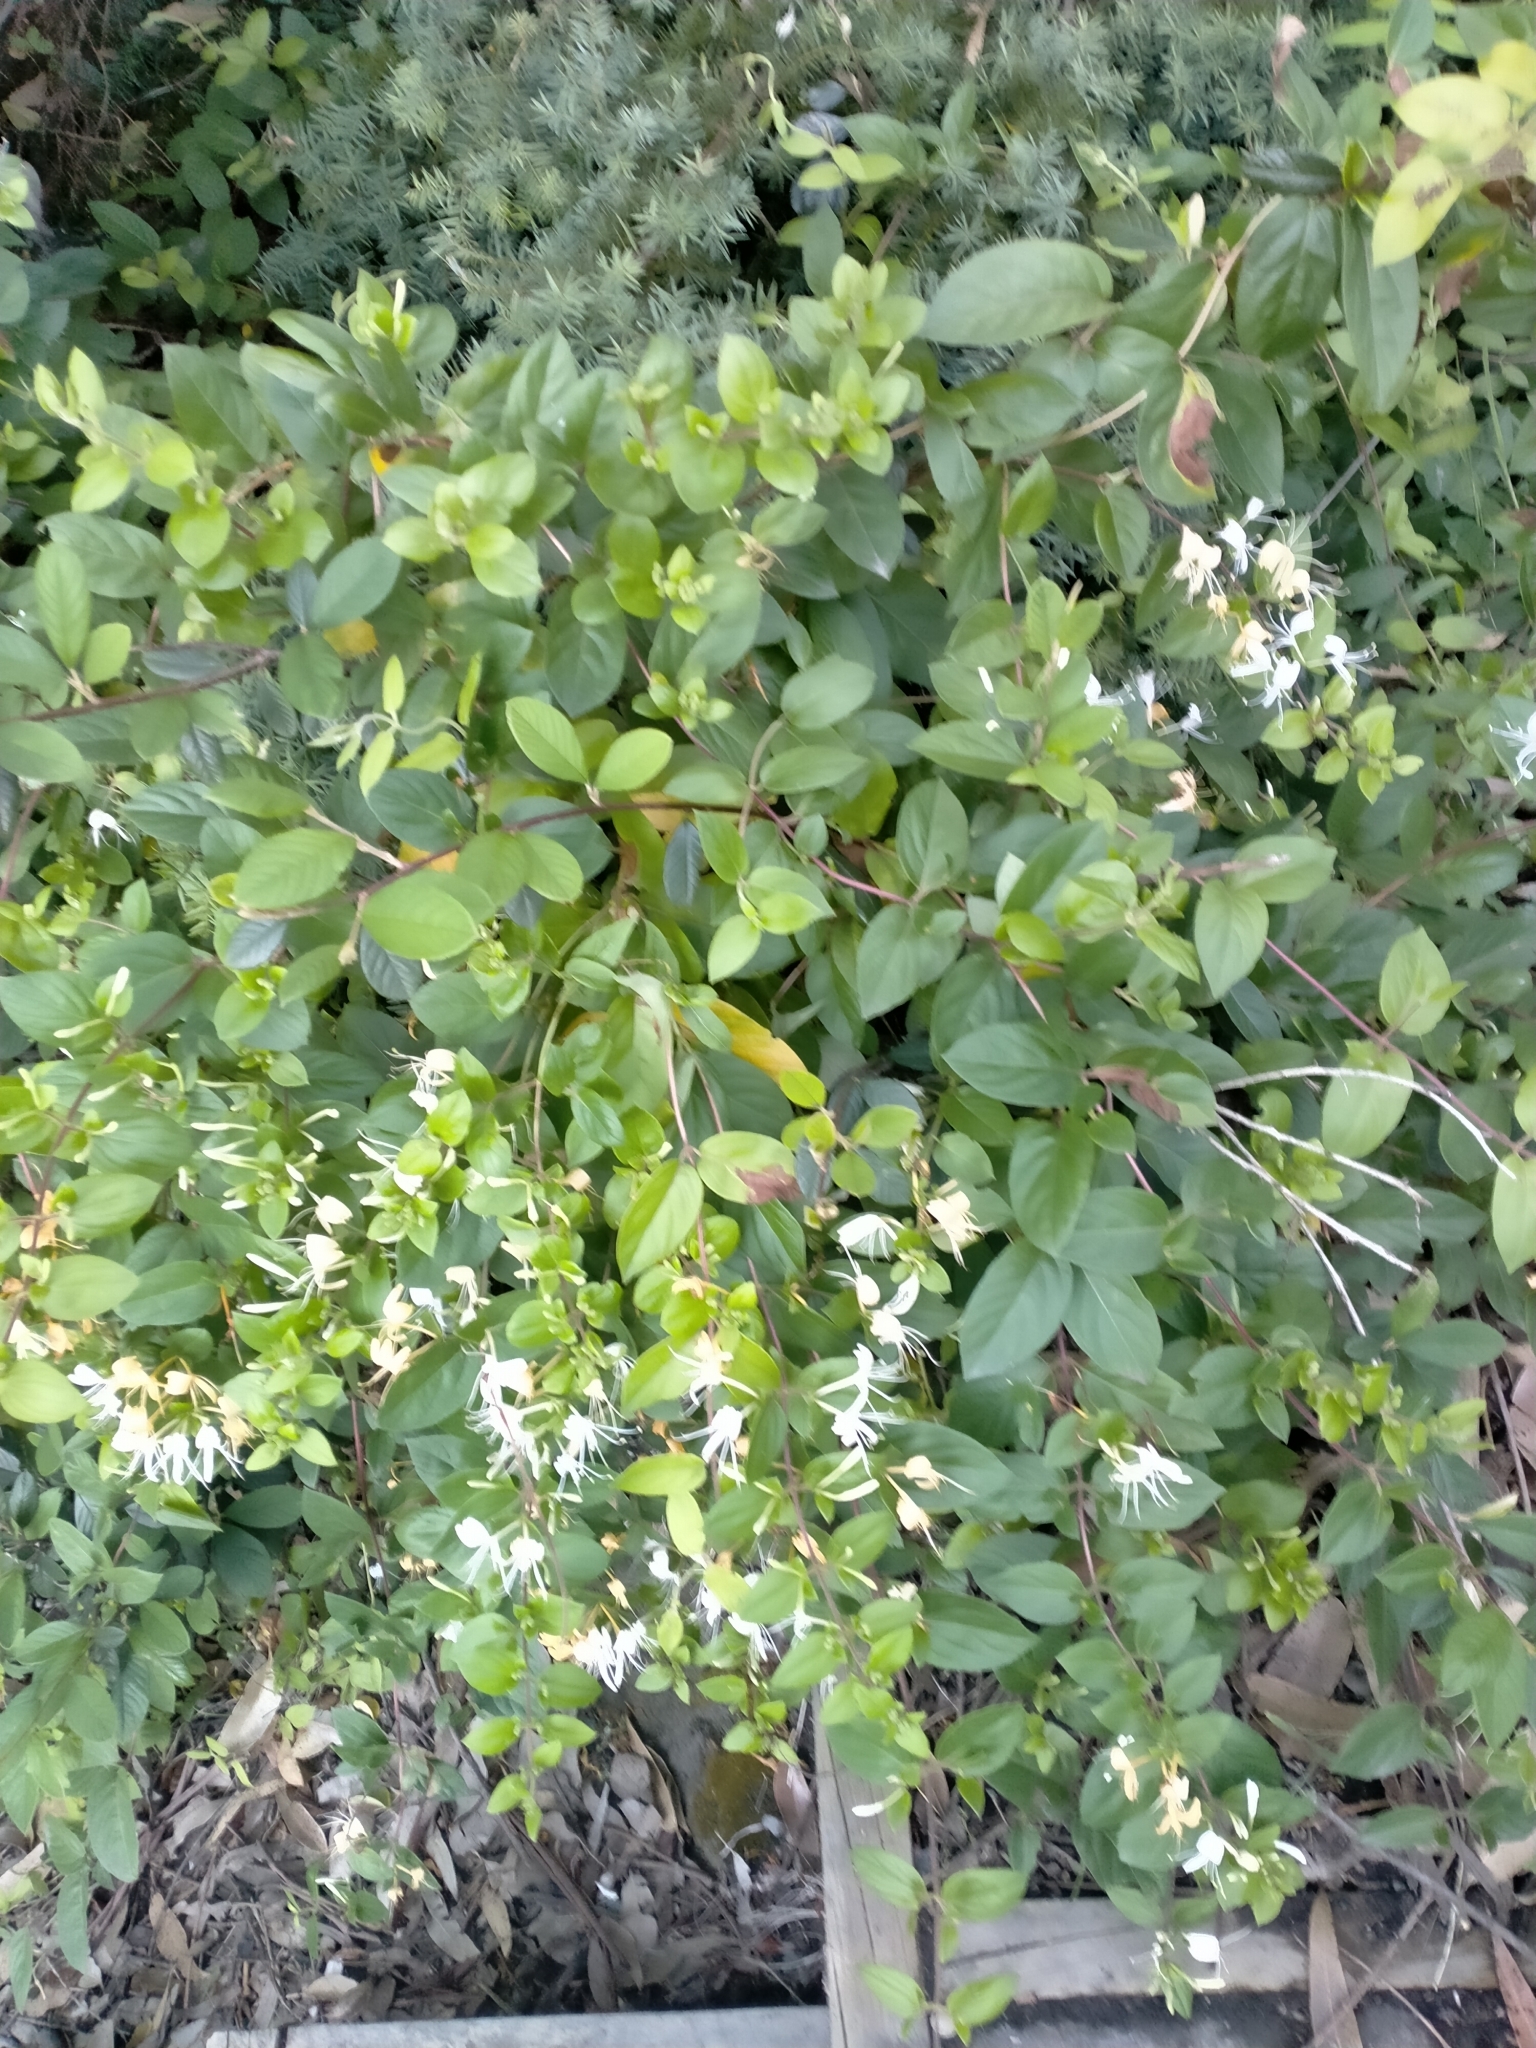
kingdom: Plantae
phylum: Tracheophyta
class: Magnoliopsida
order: Dipsacales
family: Caprifoliaceae
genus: Lonicera
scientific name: Lonicera japonica
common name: Japanese honeysuckle
